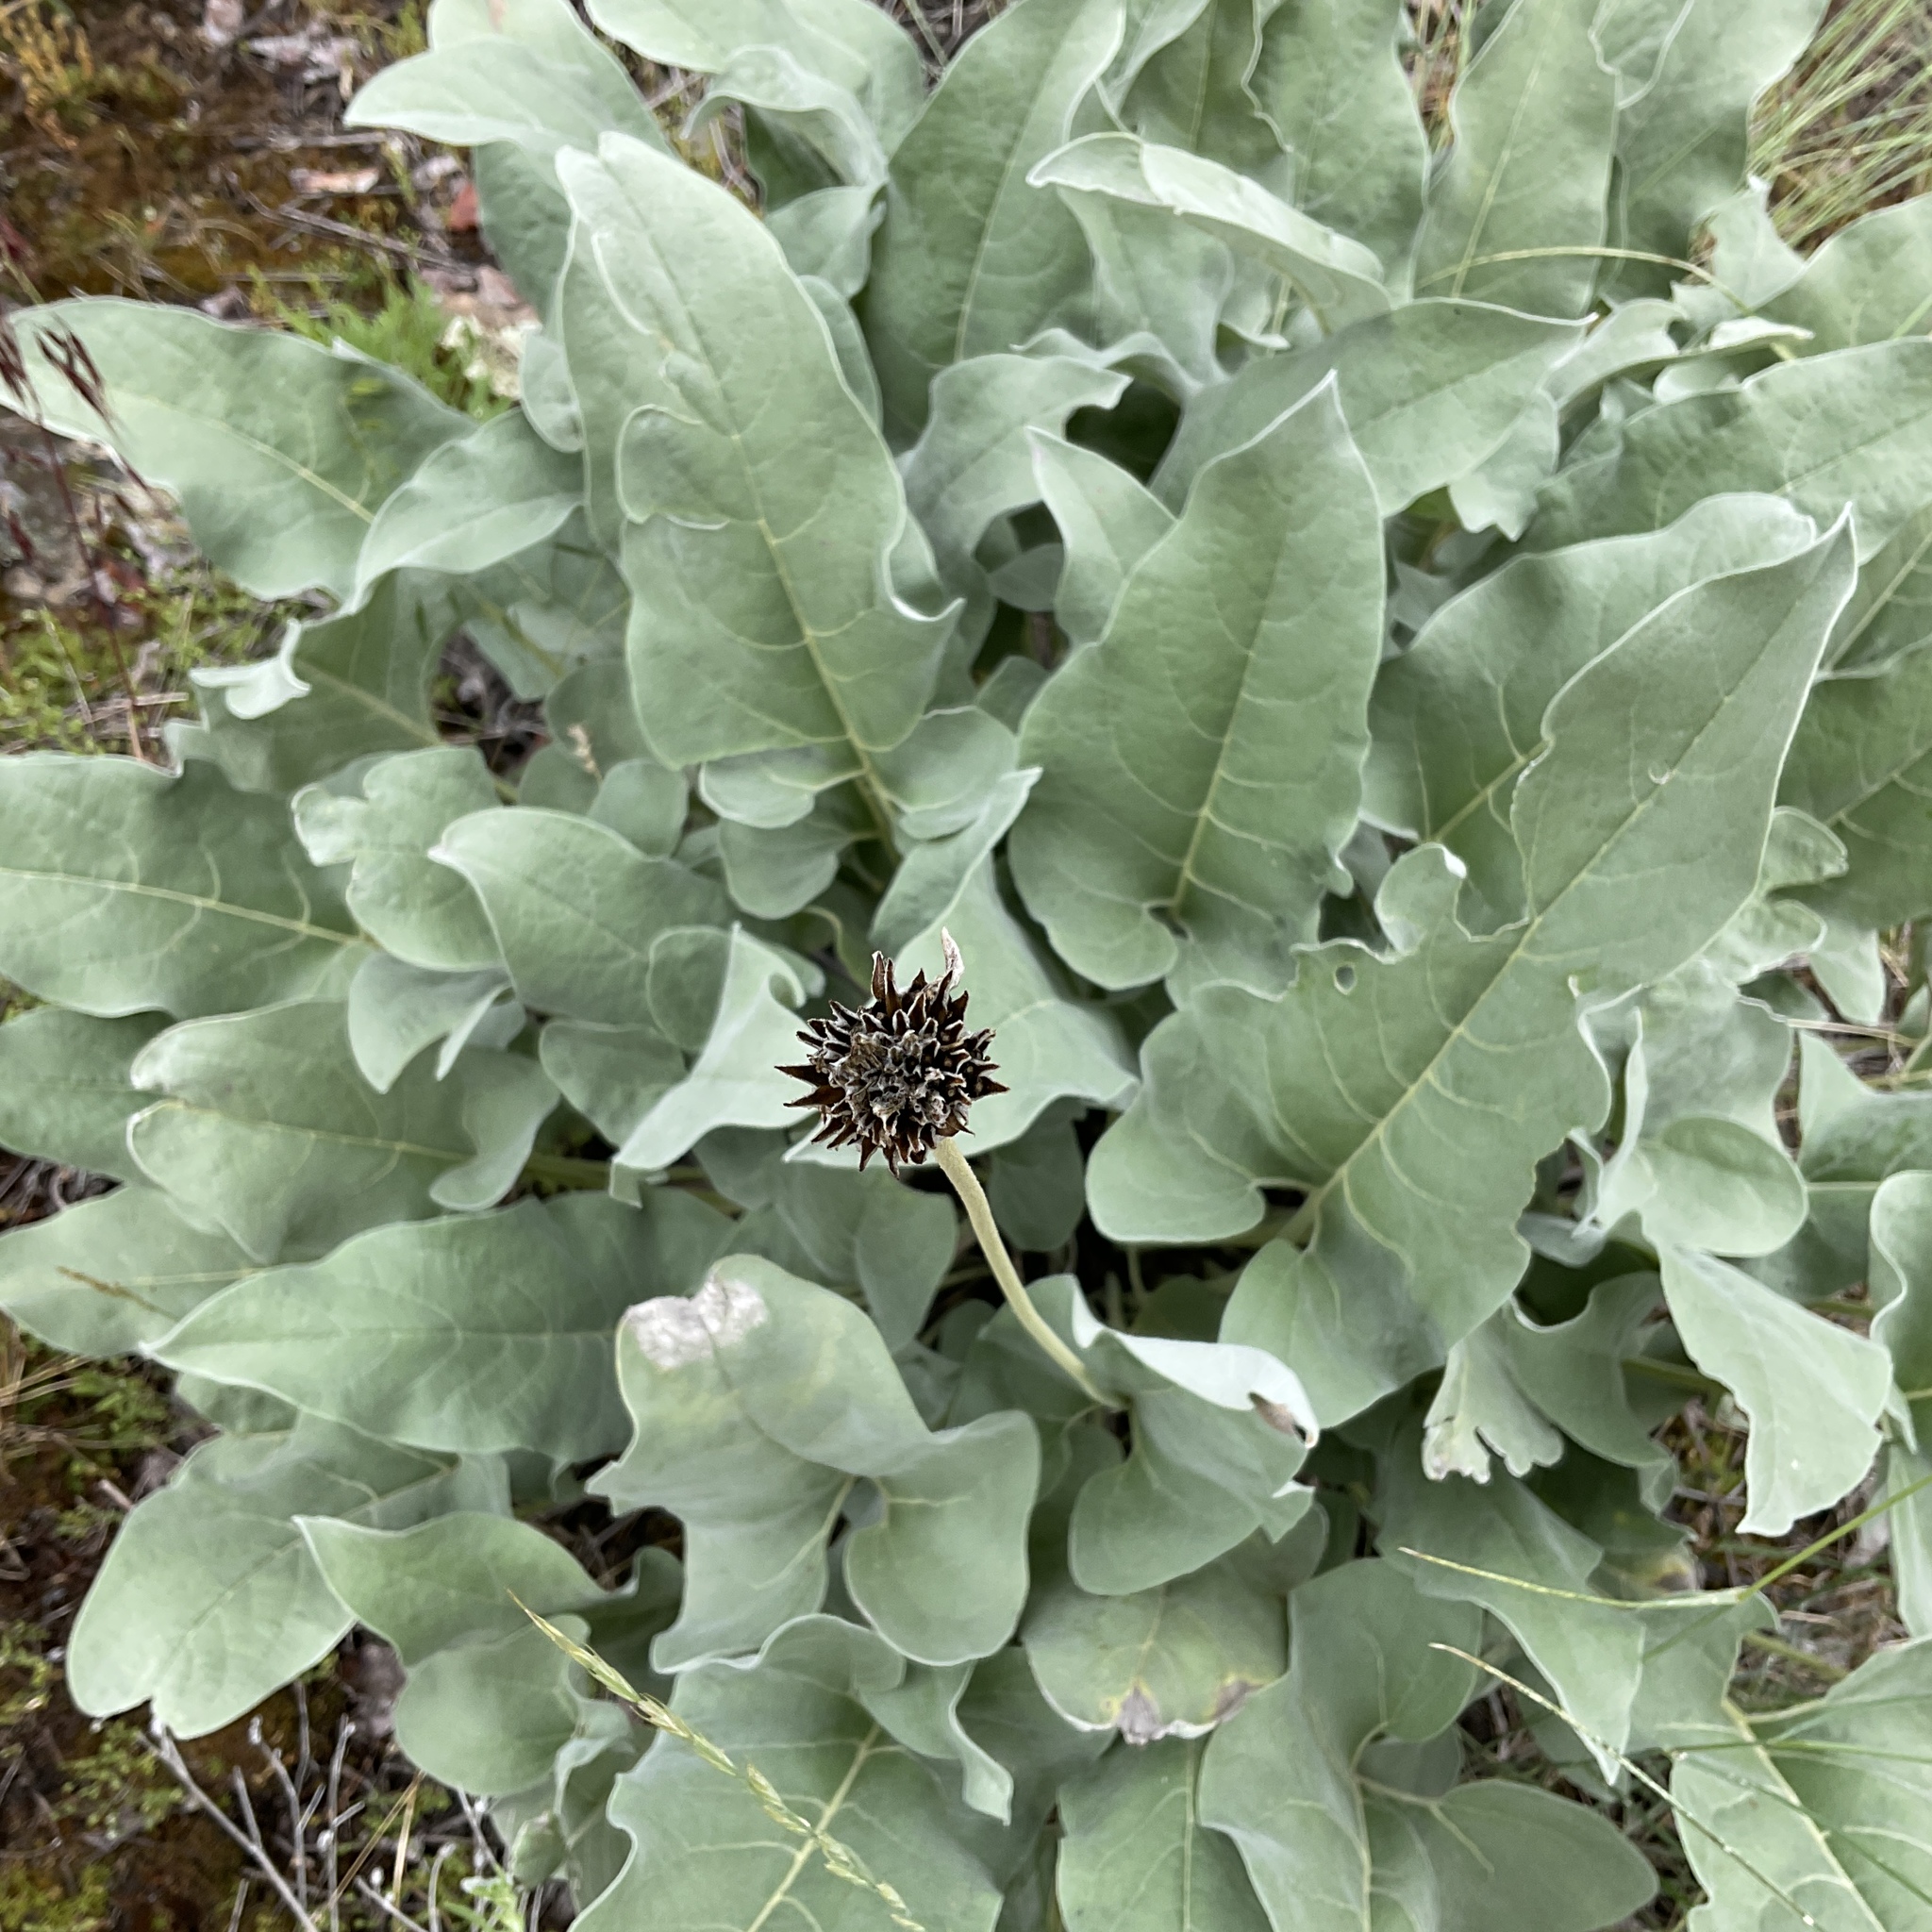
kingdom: Plantae
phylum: Tracheophyta
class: Magnoliopsida
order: Asterales
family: Asteraceae
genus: Wyethia
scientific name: Wyethia sagittata
